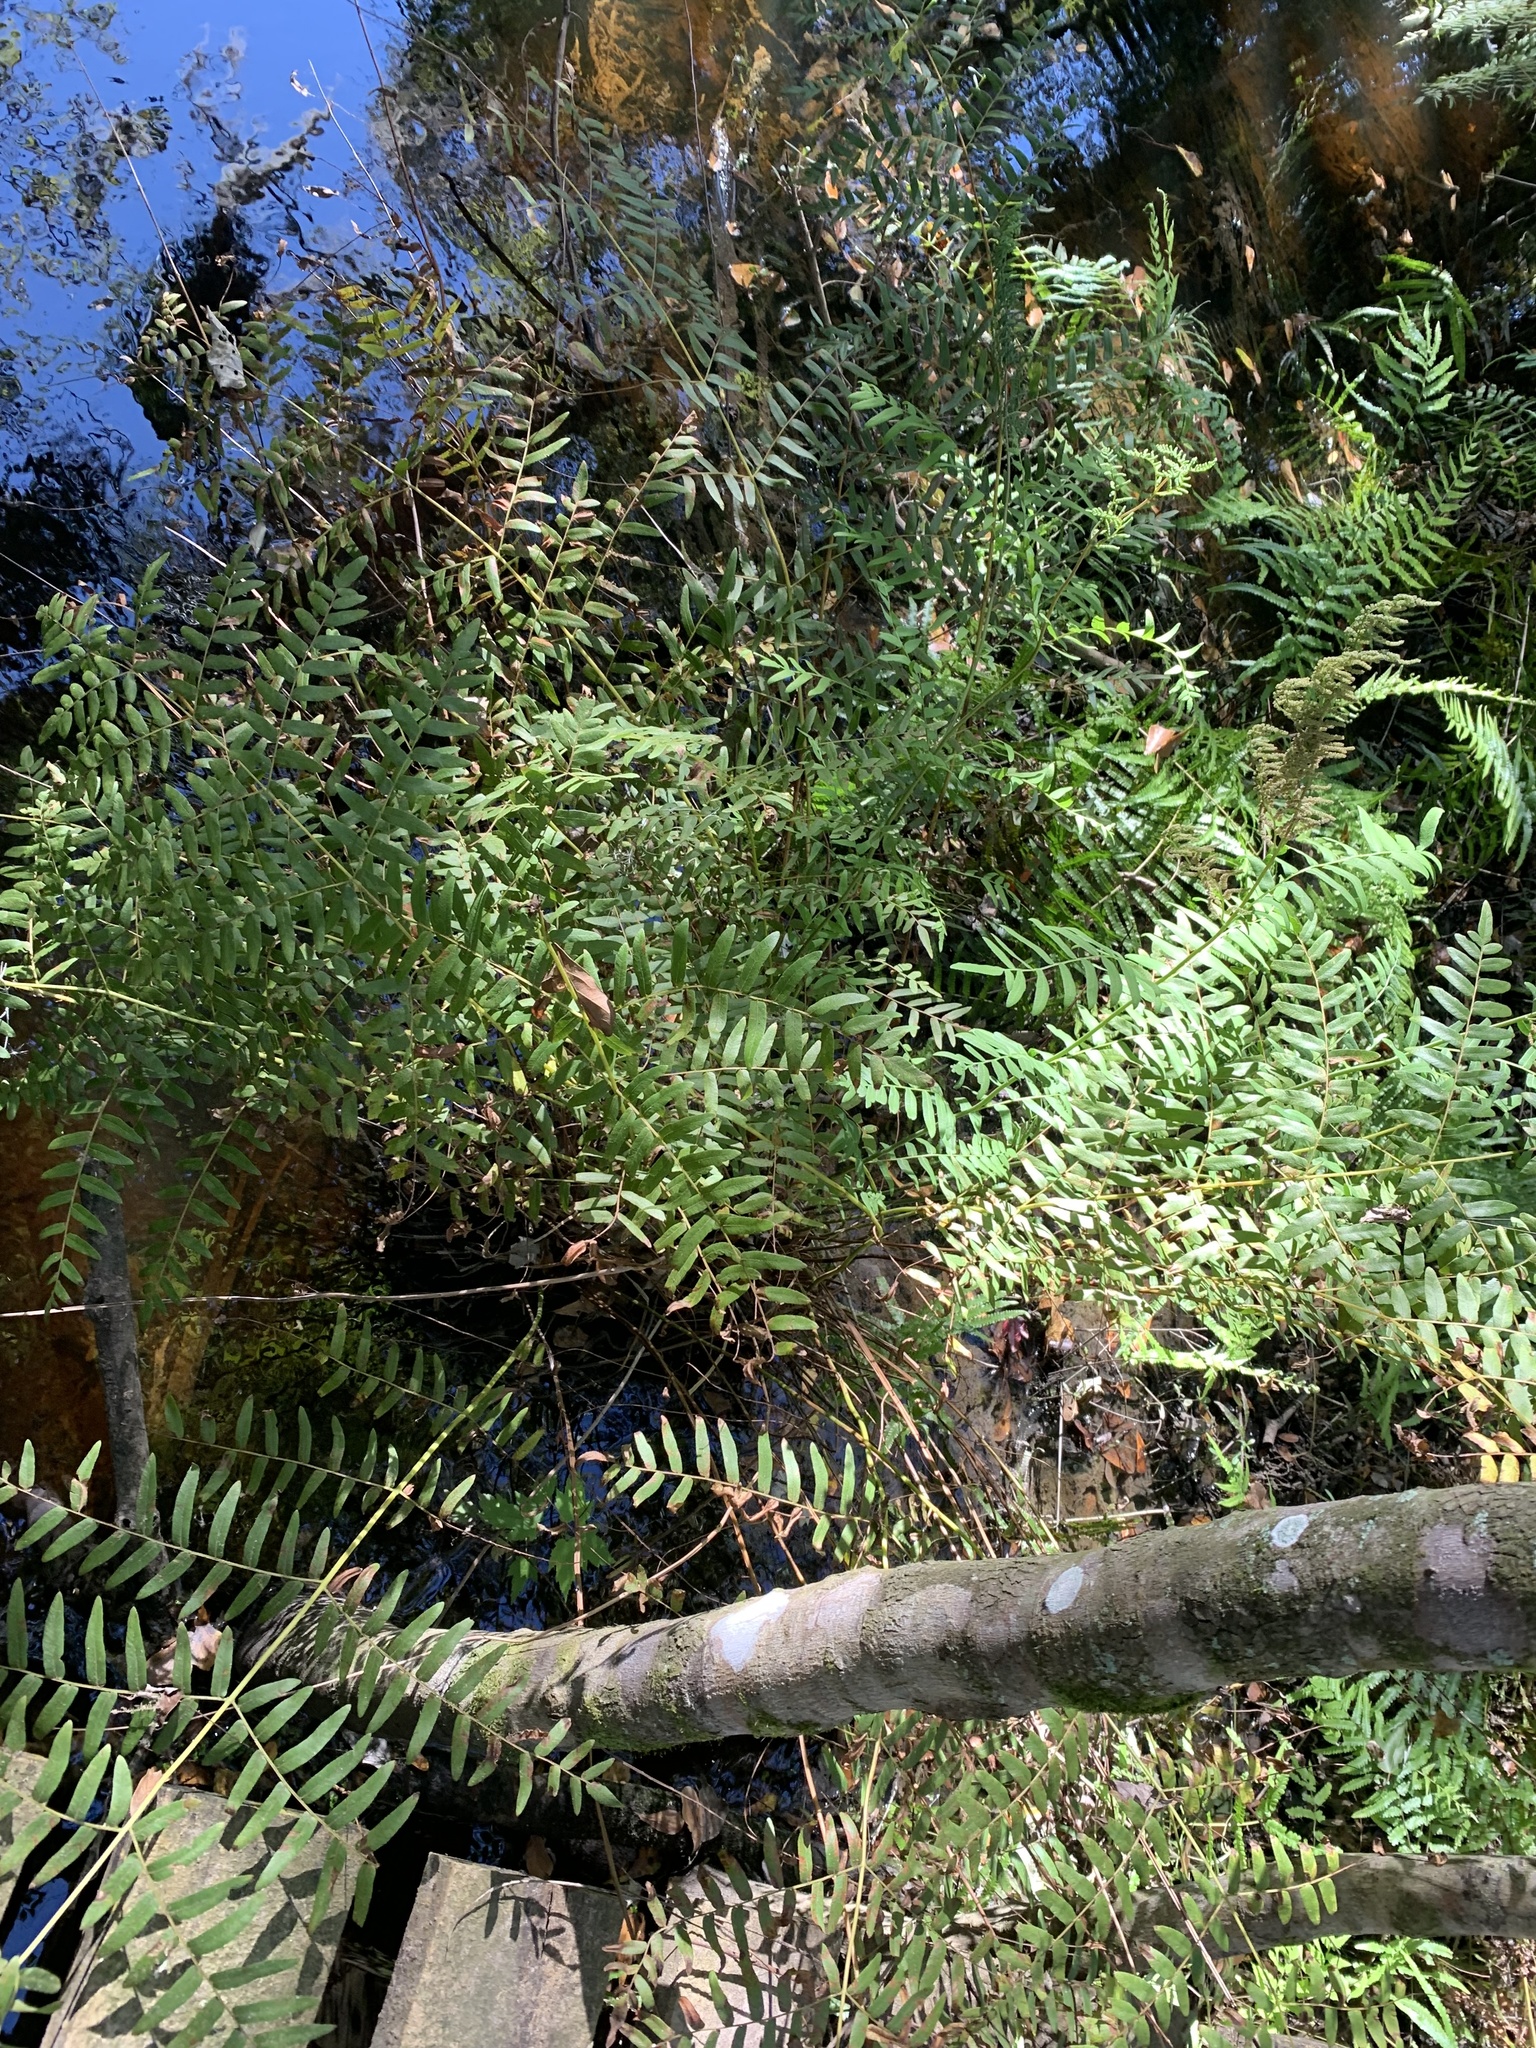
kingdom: Plantae
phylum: Tracheophyta
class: Polypodiopsida
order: Osmundales
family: Osmundaceae
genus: Osmunda
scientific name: Osmunda spectabilis
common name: American royal fern
